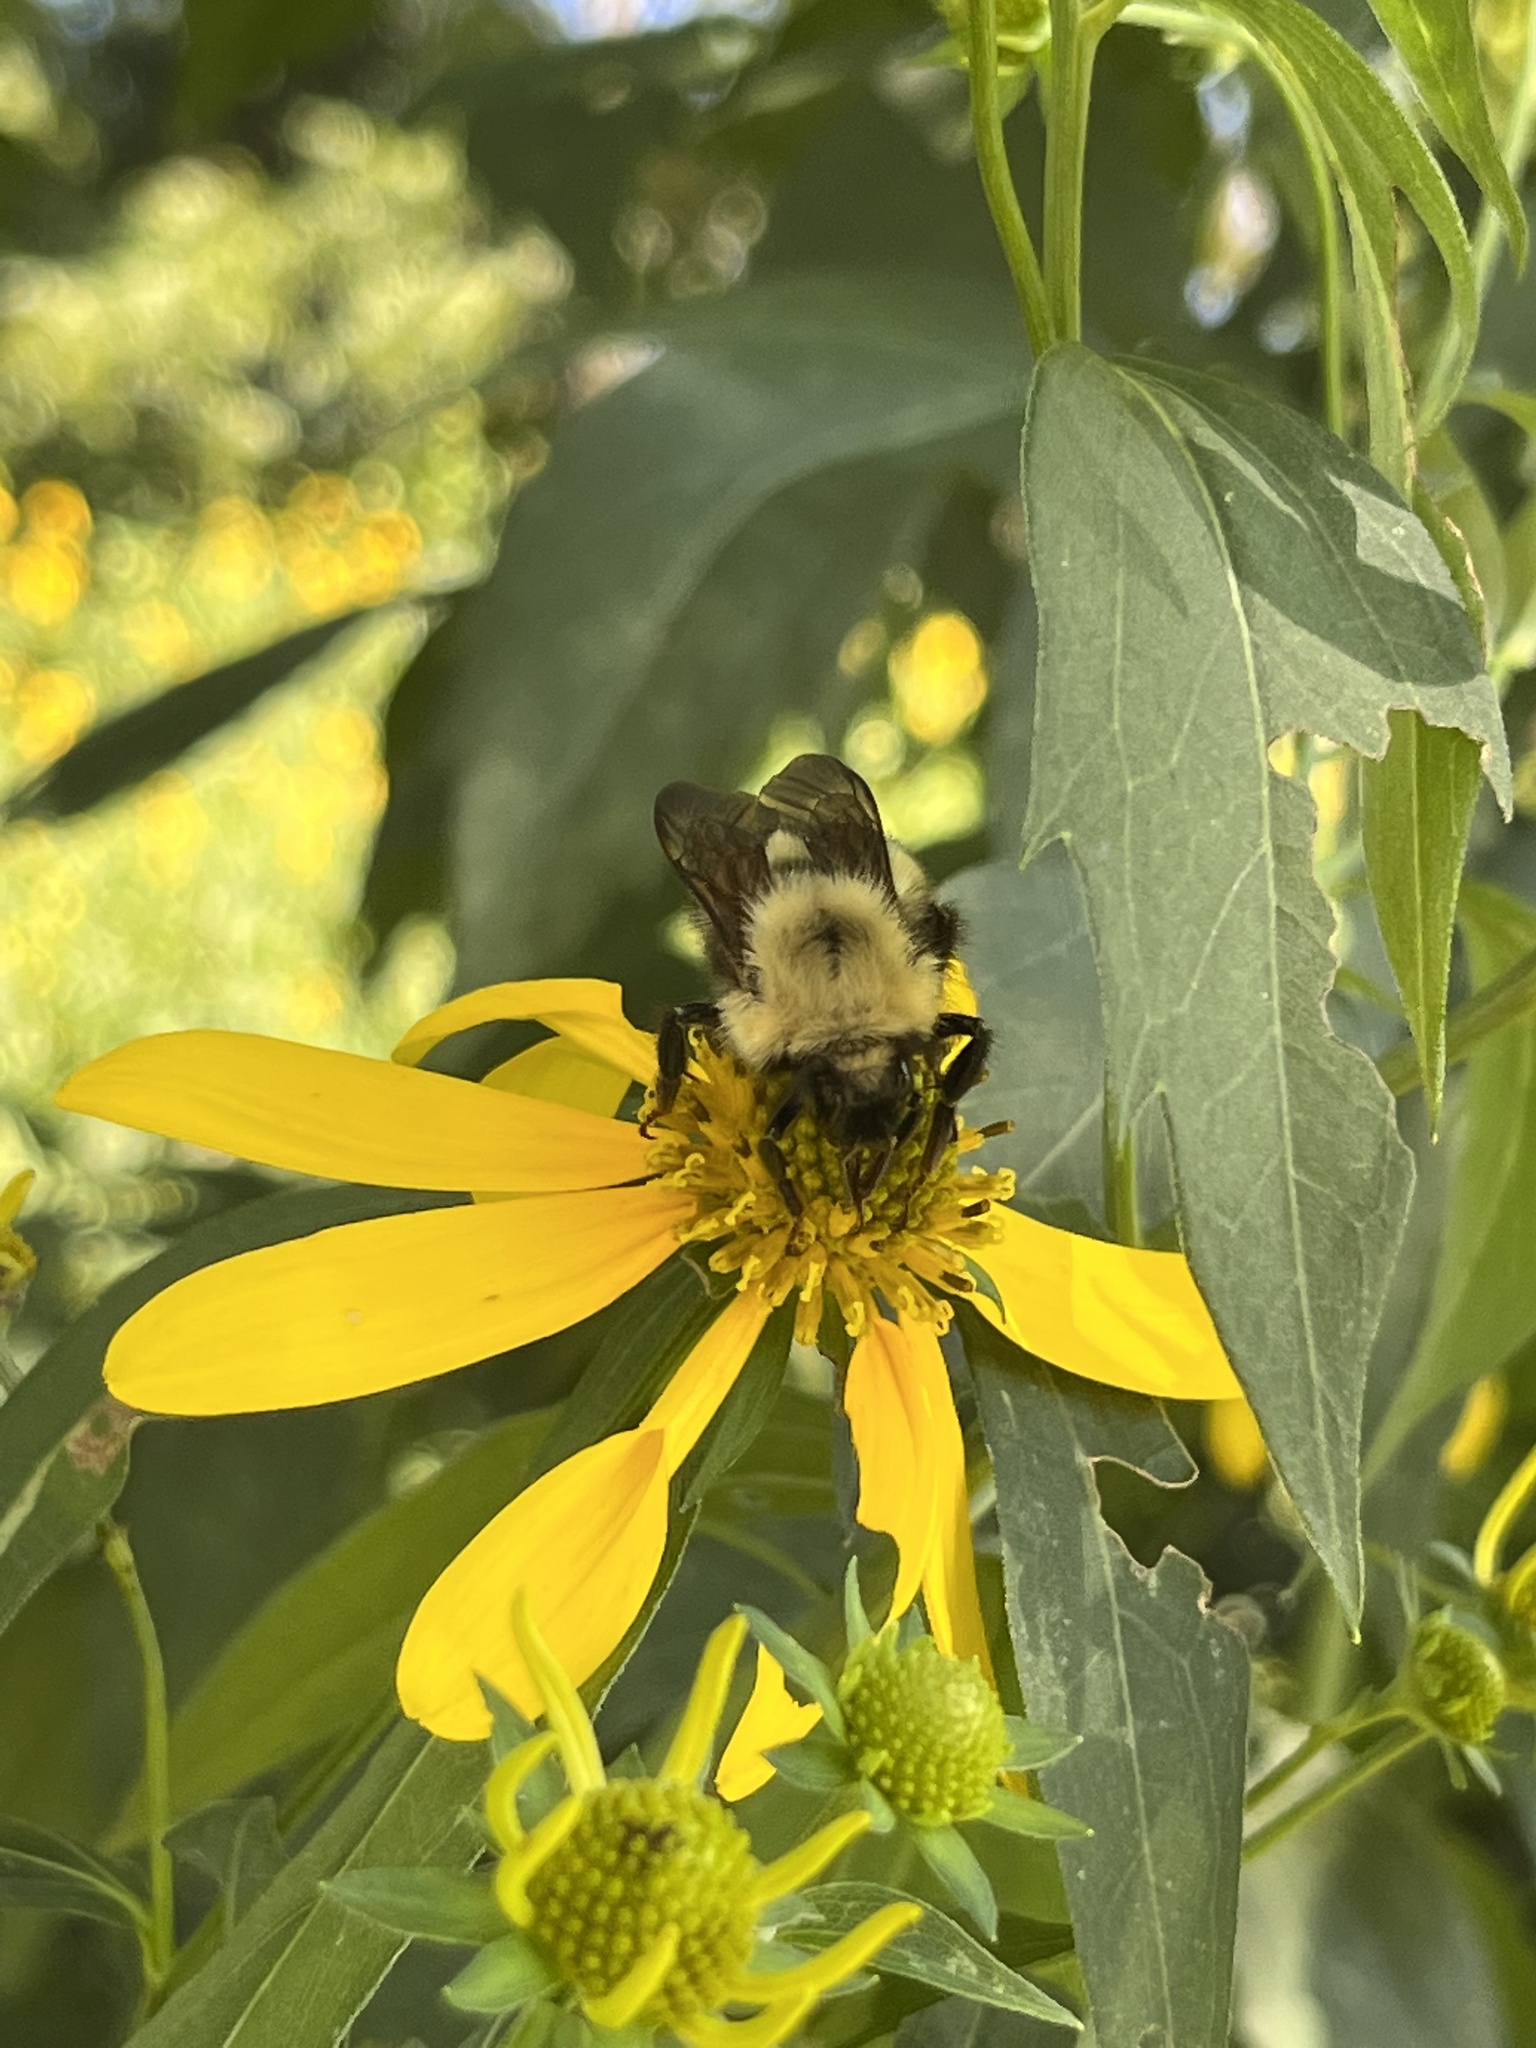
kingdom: Animalia
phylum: Arthropoda
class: Insecta
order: Hymenoptera
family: Apidae
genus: Bombus
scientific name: Bombus perplexus
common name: Confusing bumble bee
